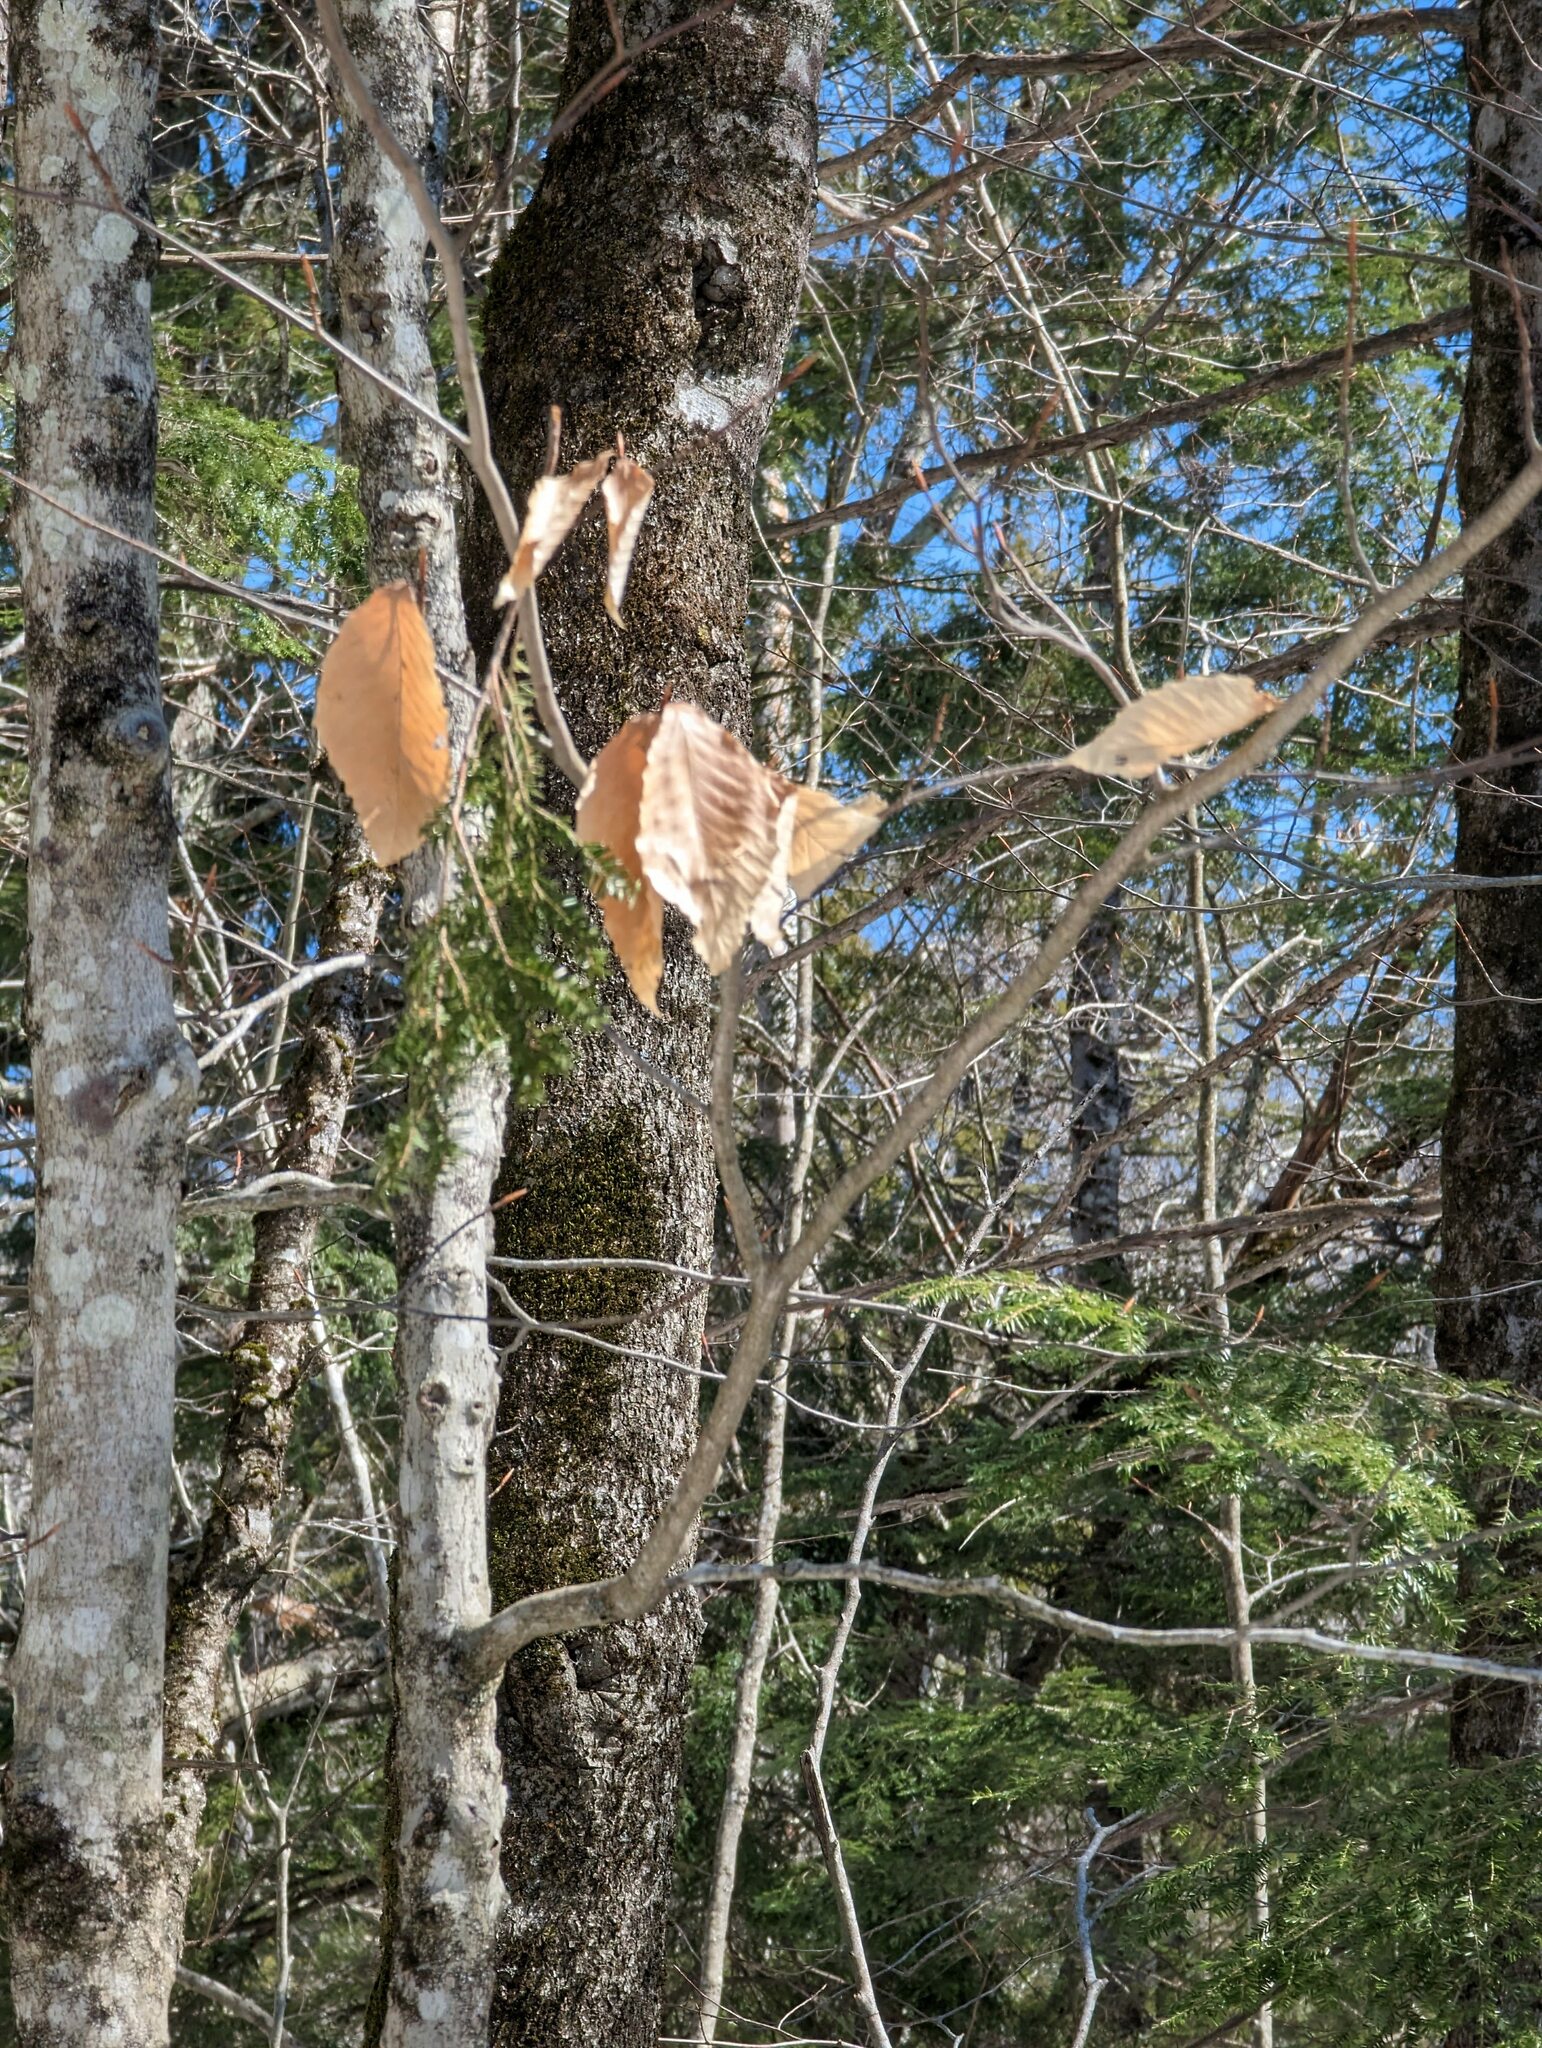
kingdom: Plantae
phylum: Tracheophyta
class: Magnoliopsida
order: Fagales
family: Fagaceae
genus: Fagus
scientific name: Fagus grandifolia
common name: American beech
